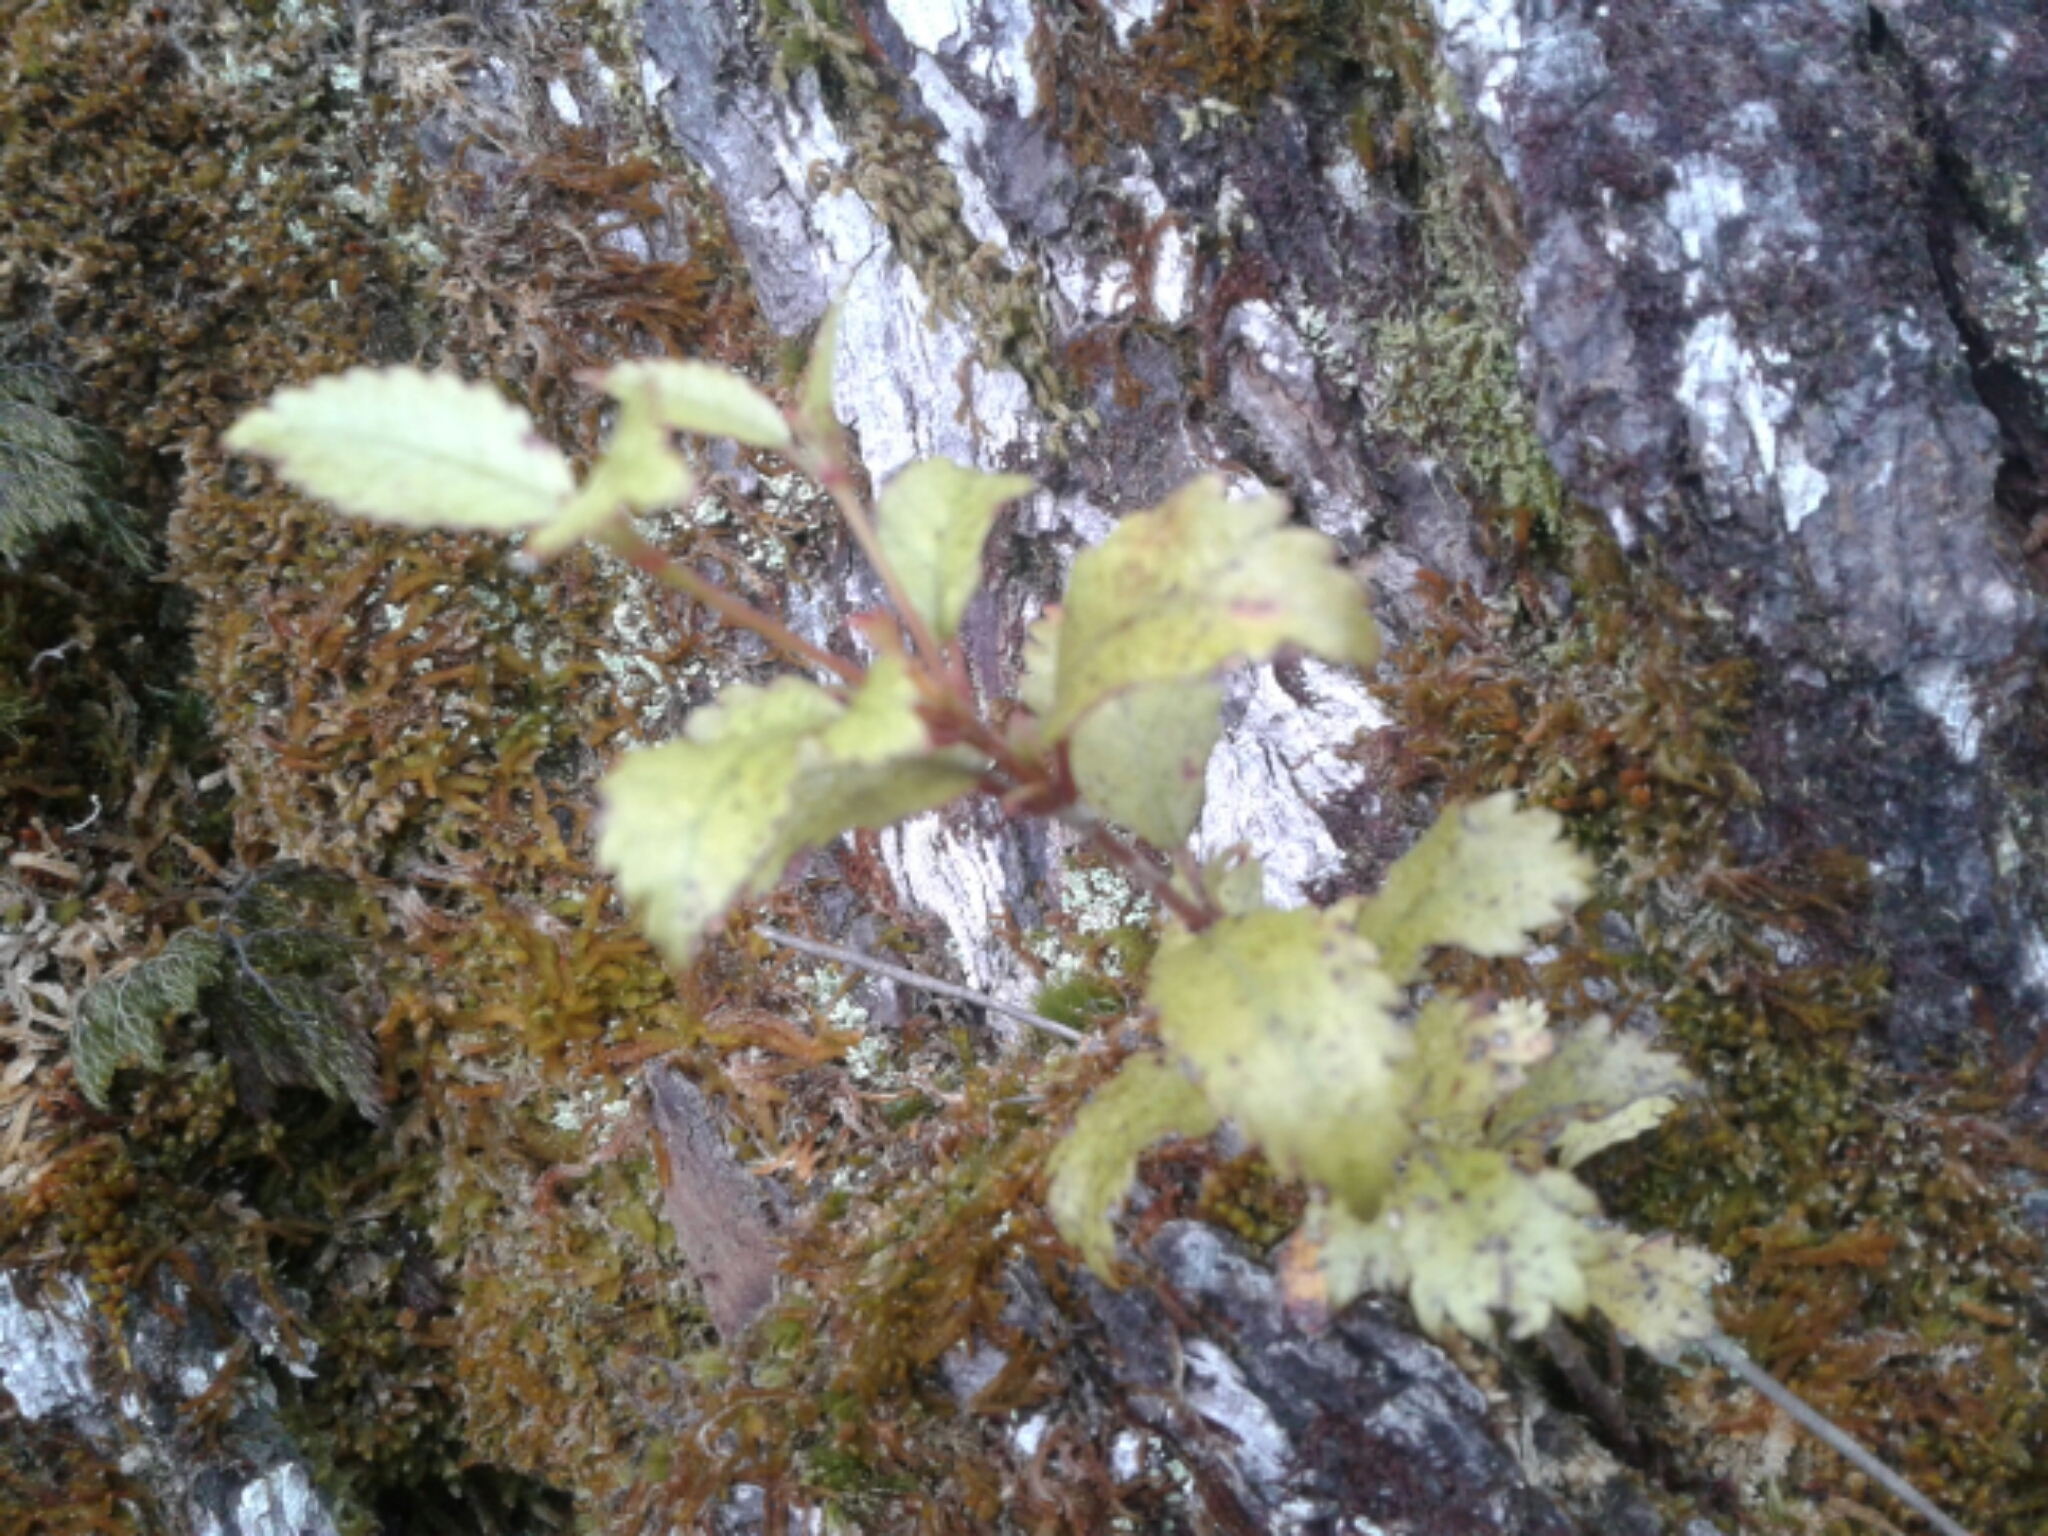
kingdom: Plantae
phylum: Tracheophyta
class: Magnoliopsida
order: Oxalidales
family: Cunoniaceae
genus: Pterophylla
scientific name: Pterophylla racemosa
